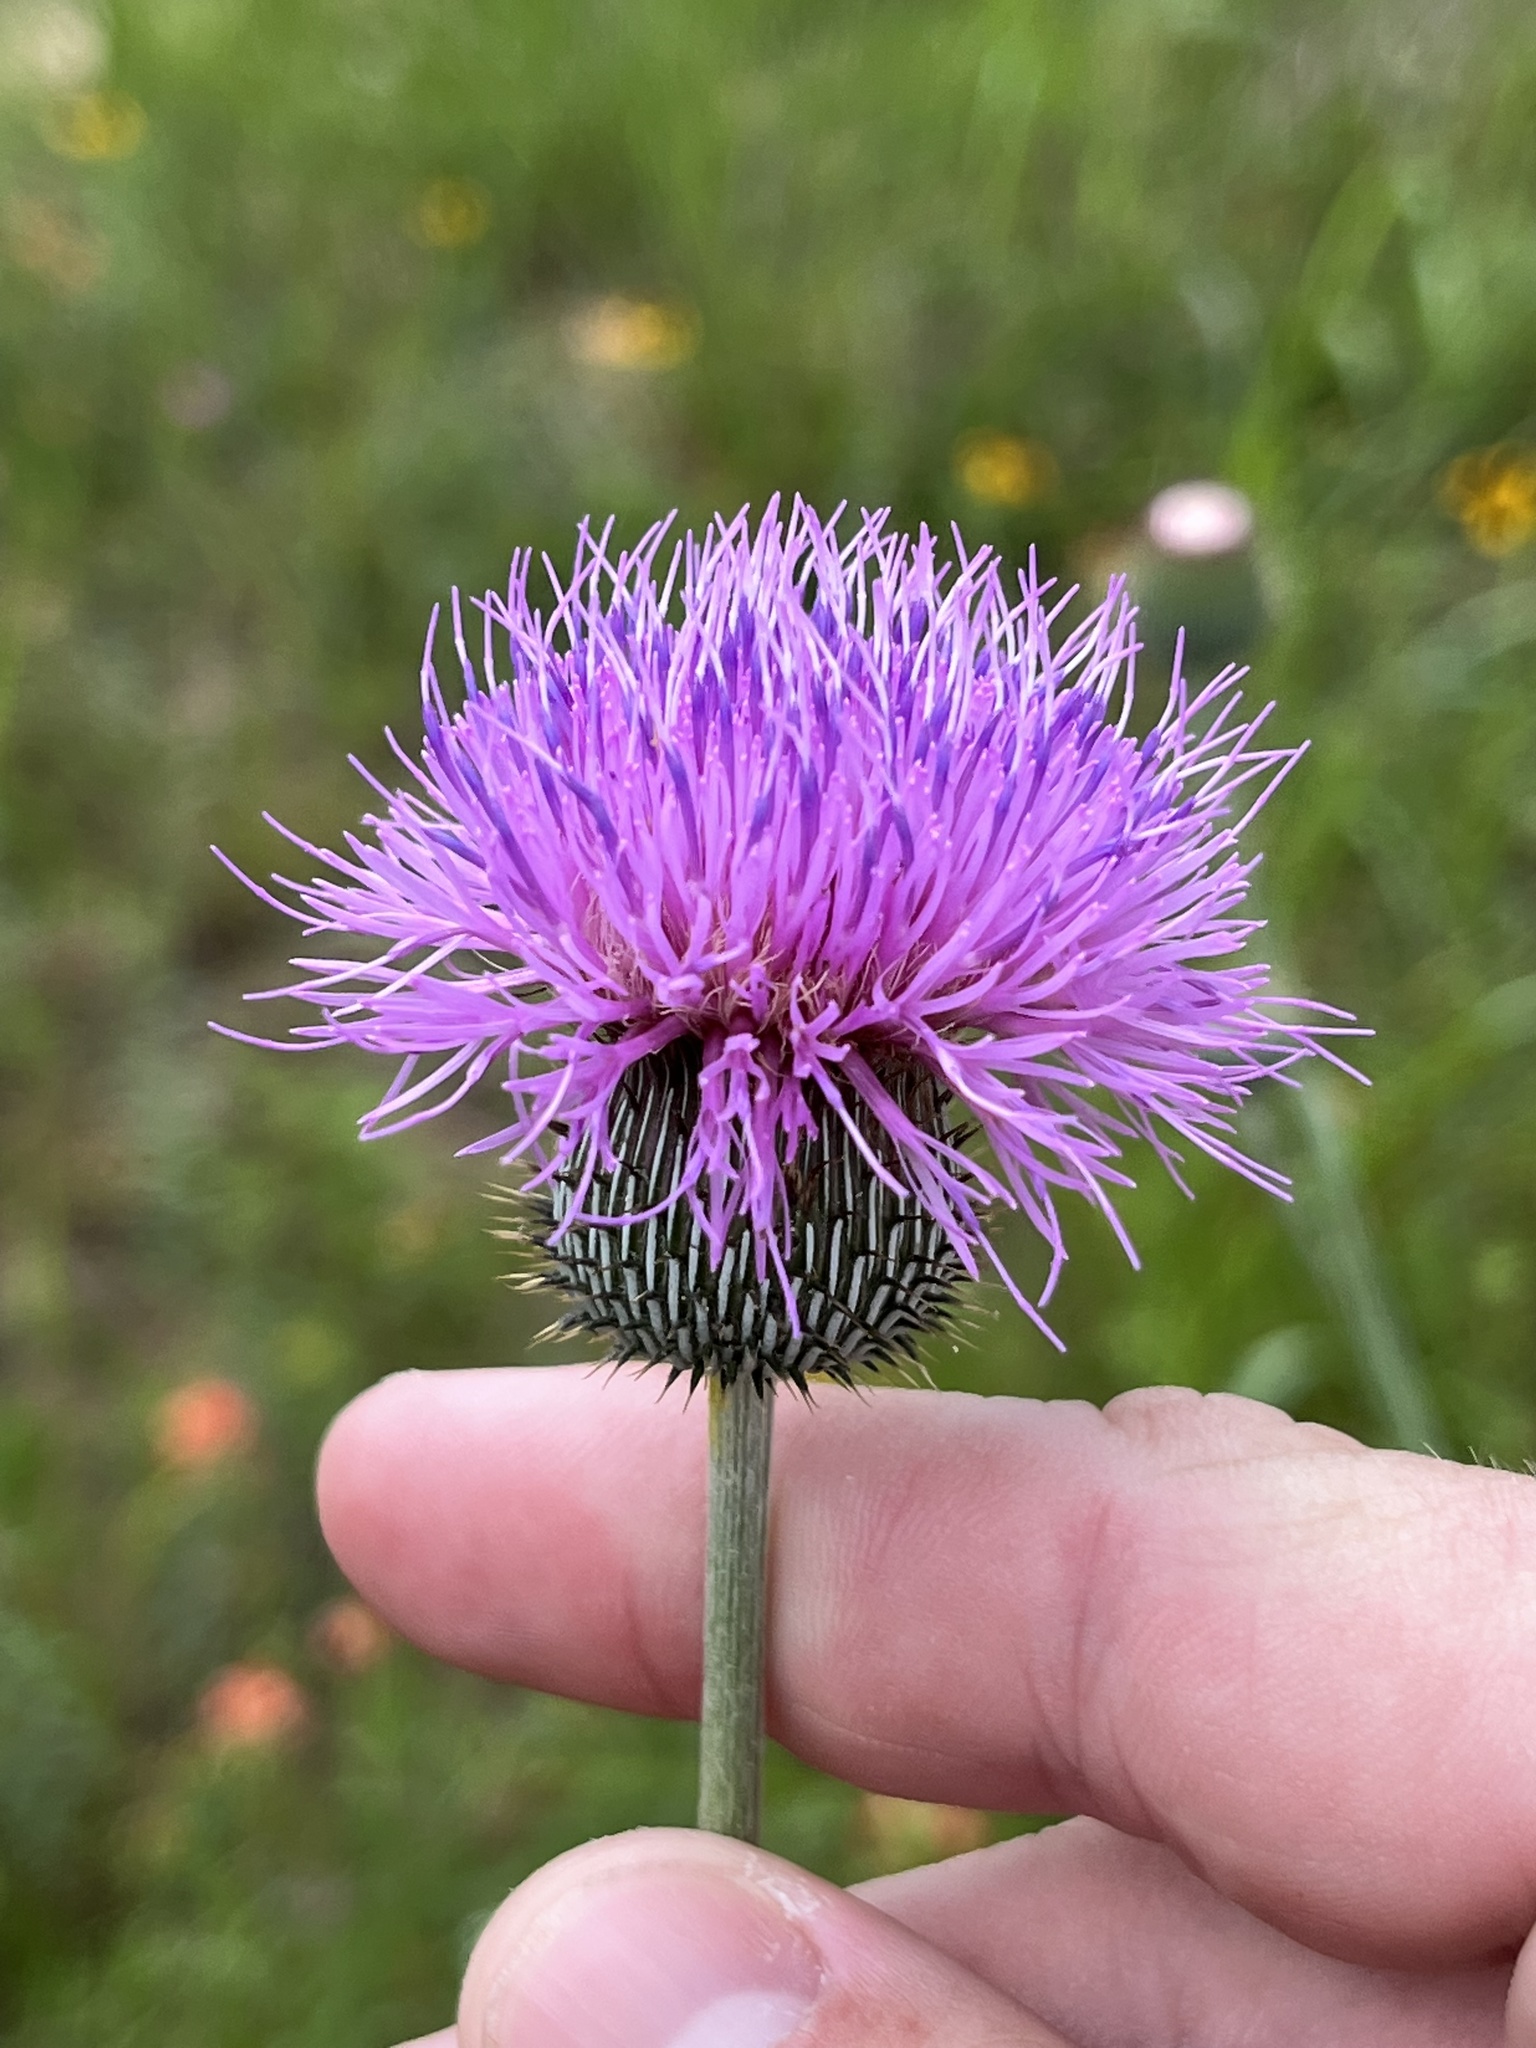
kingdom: Plantae
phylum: Tracheophyta
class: Magnoliopsida
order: Asterales
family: Asteraceae
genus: Cirsium
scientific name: Cirsium texanum
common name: Texas purple thistle
